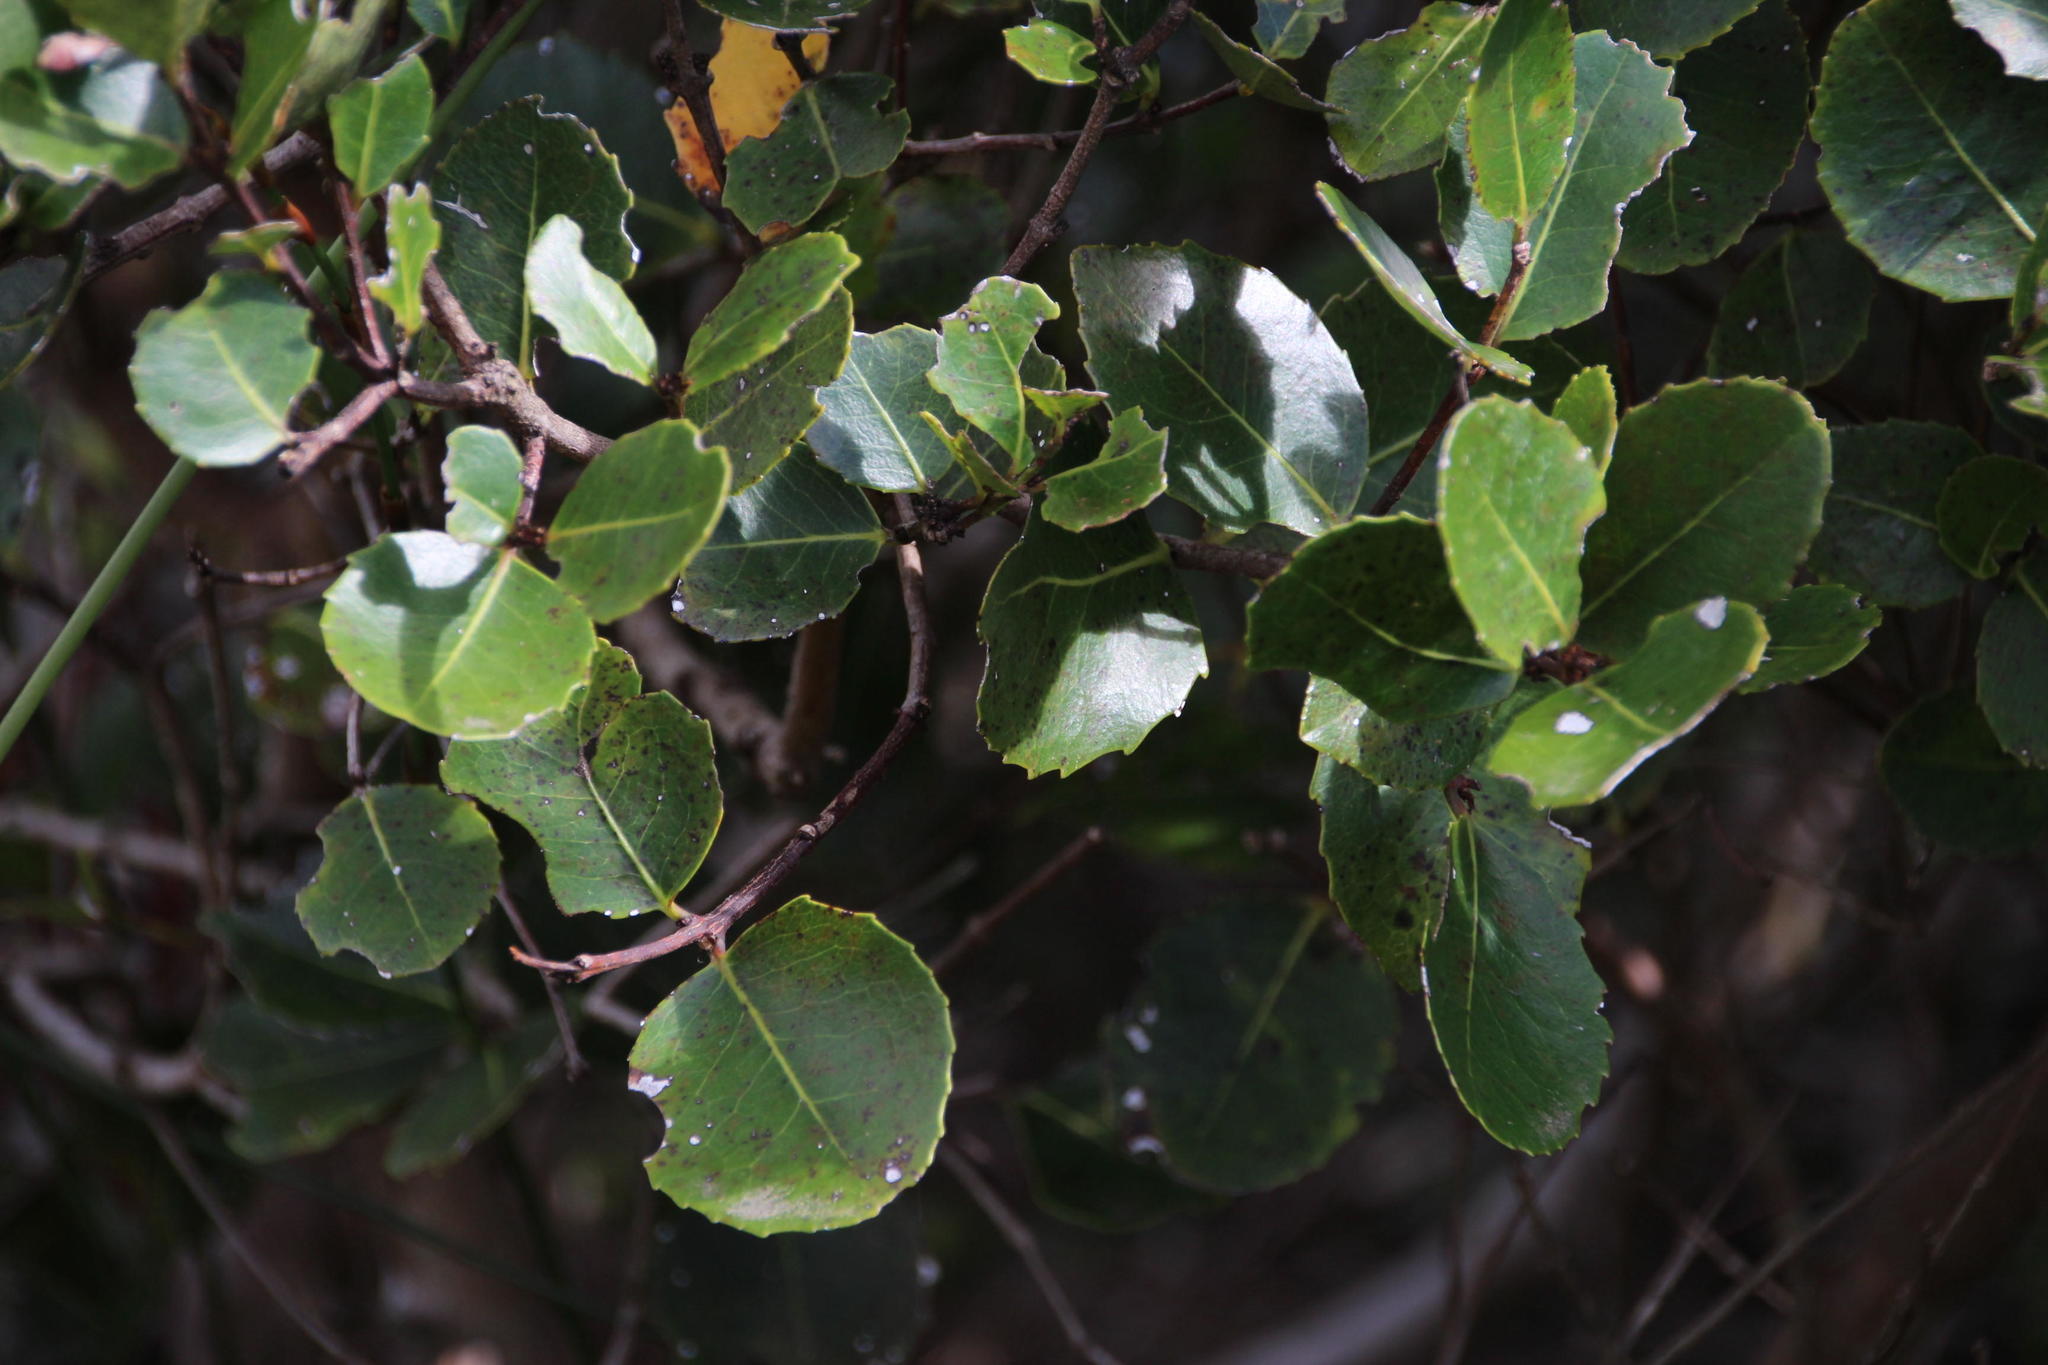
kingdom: Plantae
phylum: Tracheophyta
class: Magnoliopsida
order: Celastrales
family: Celastraceae
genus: Cassine
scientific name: Cassine peragua
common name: Cape saffron
